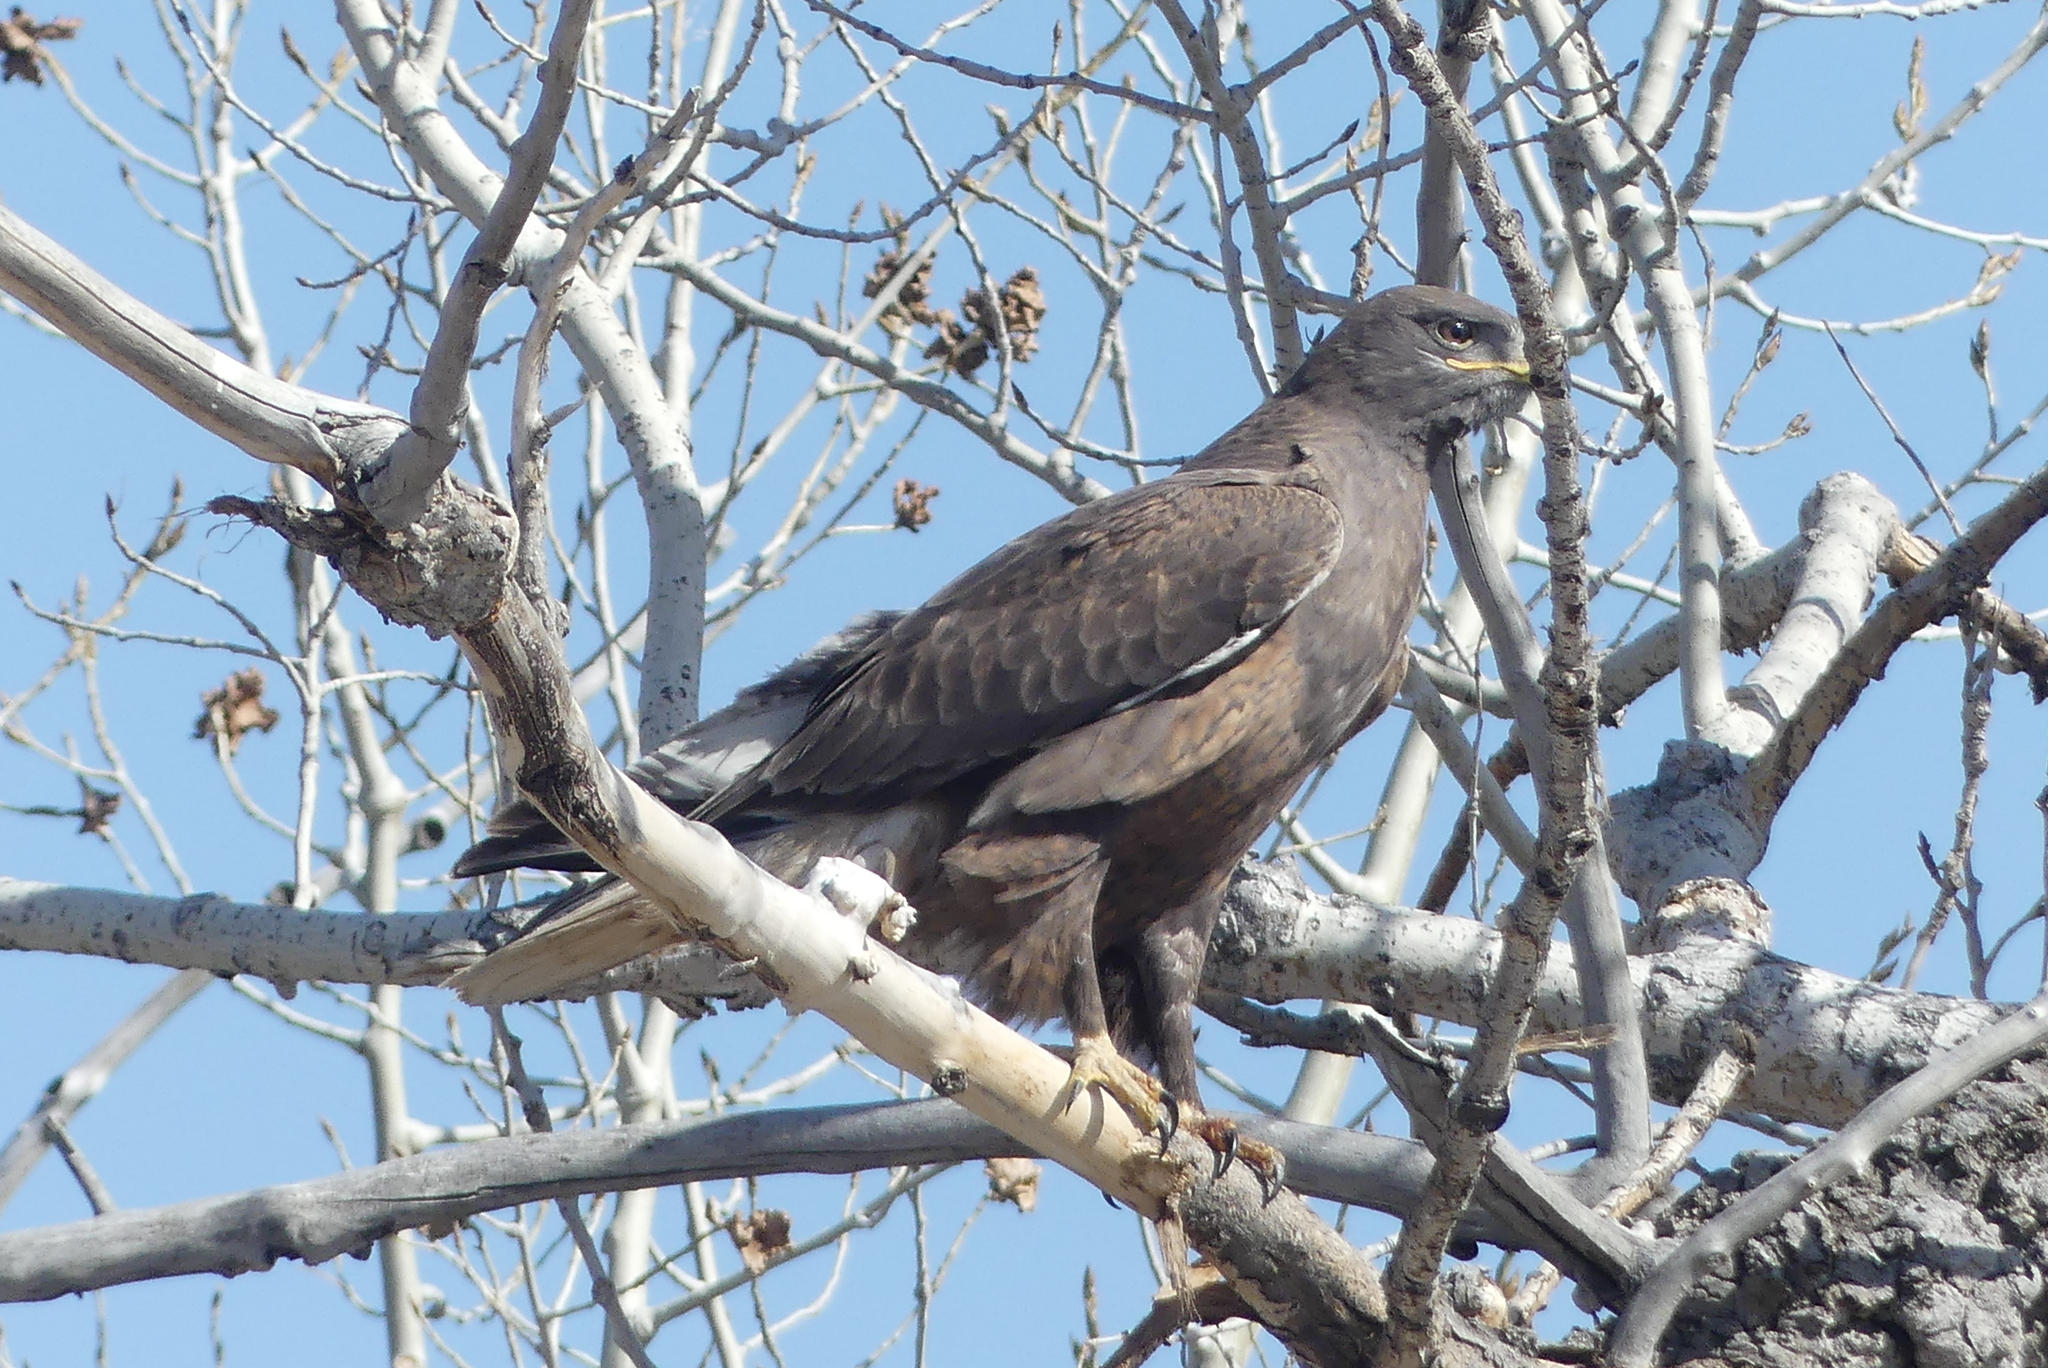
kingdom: Animalia
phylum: Chordata
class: Aves
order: Accipitriformes
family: Accipitridae
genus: Buteo
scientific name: Buteo regalis
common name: Ferruginous hawk
